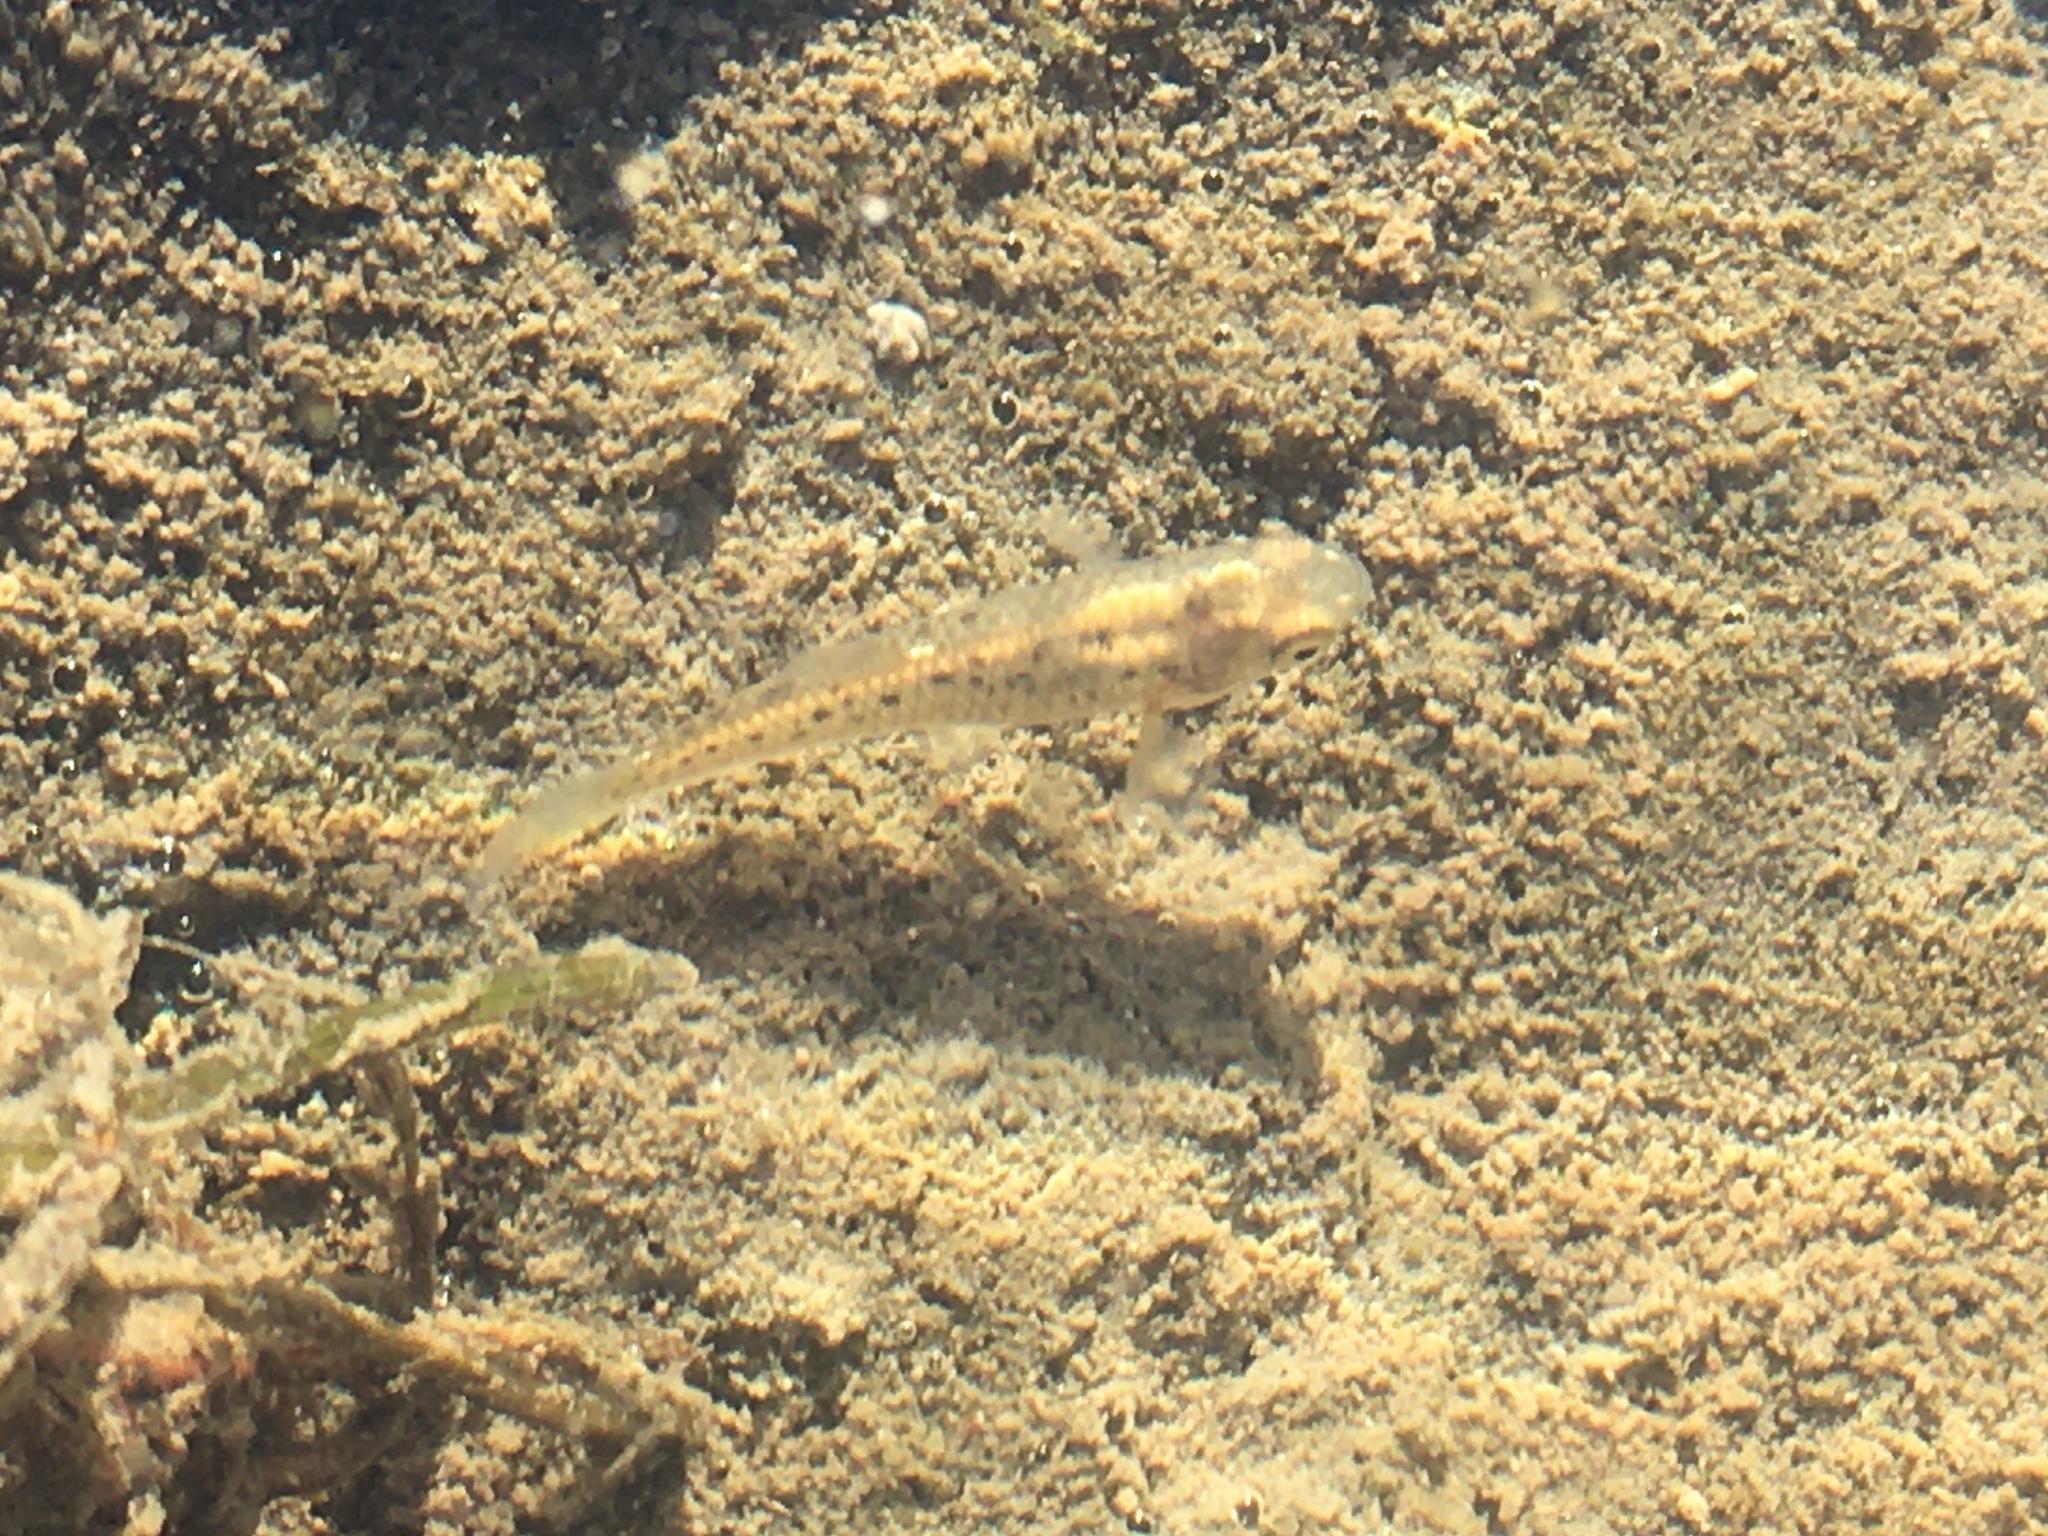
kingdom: Animalia
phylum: Chordata
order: Cyprinodontiformes
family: Anablepidae
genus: Jenynsia
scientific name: Jenynsia lineata
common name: Onesided livebearer
